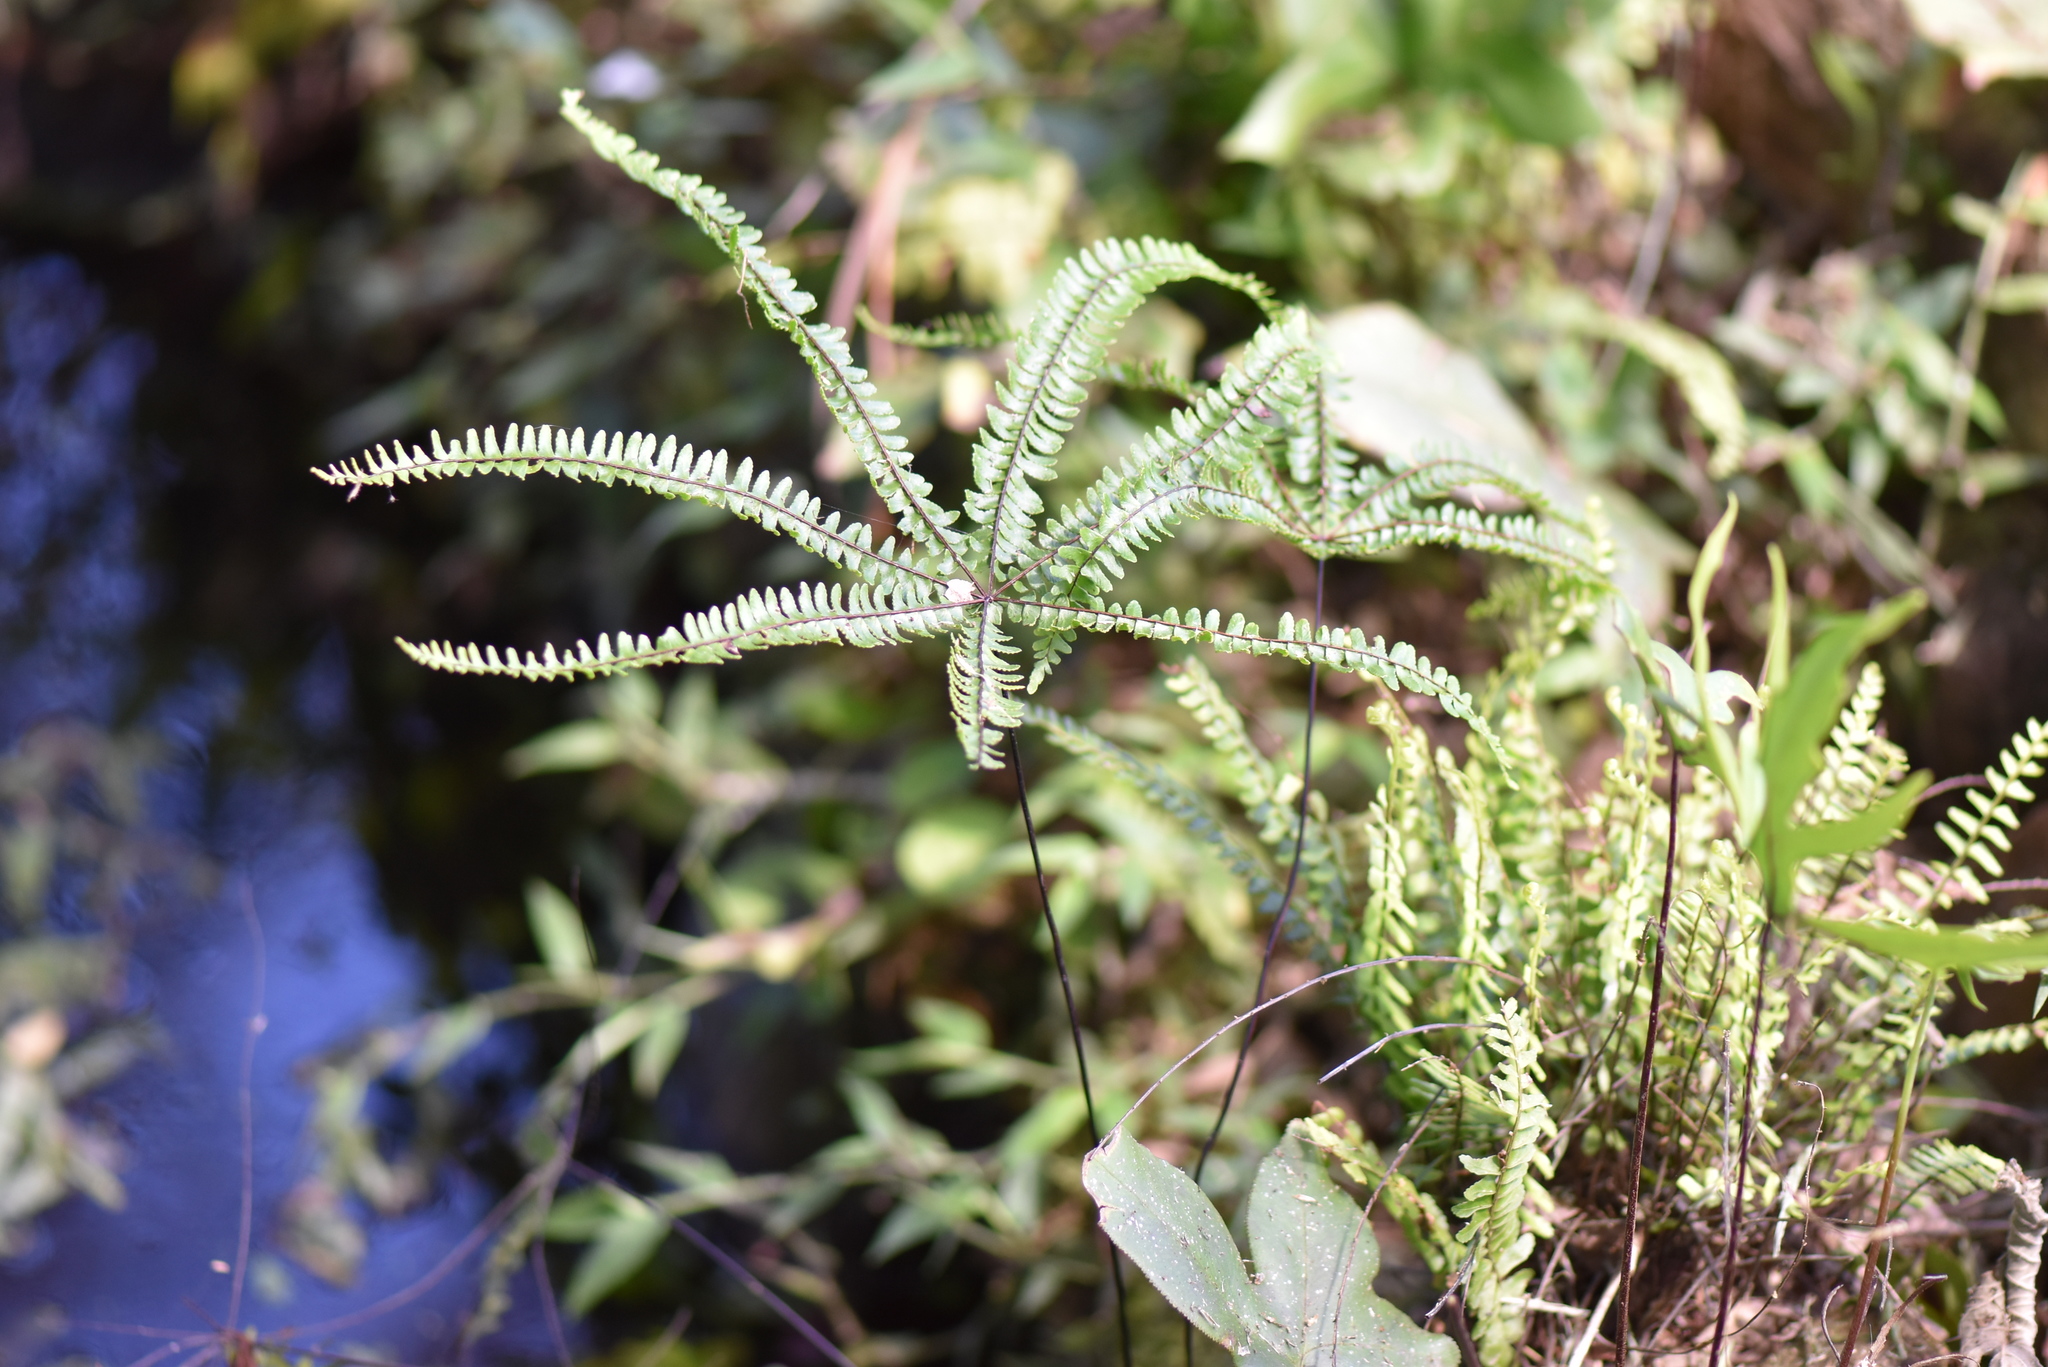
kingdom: Plantae
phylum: Tracheophyta
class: Polypodiopsida
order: Polypodiales
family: Pteridaceae
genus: Adiantopsis
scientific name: Adiantopsis radiata
